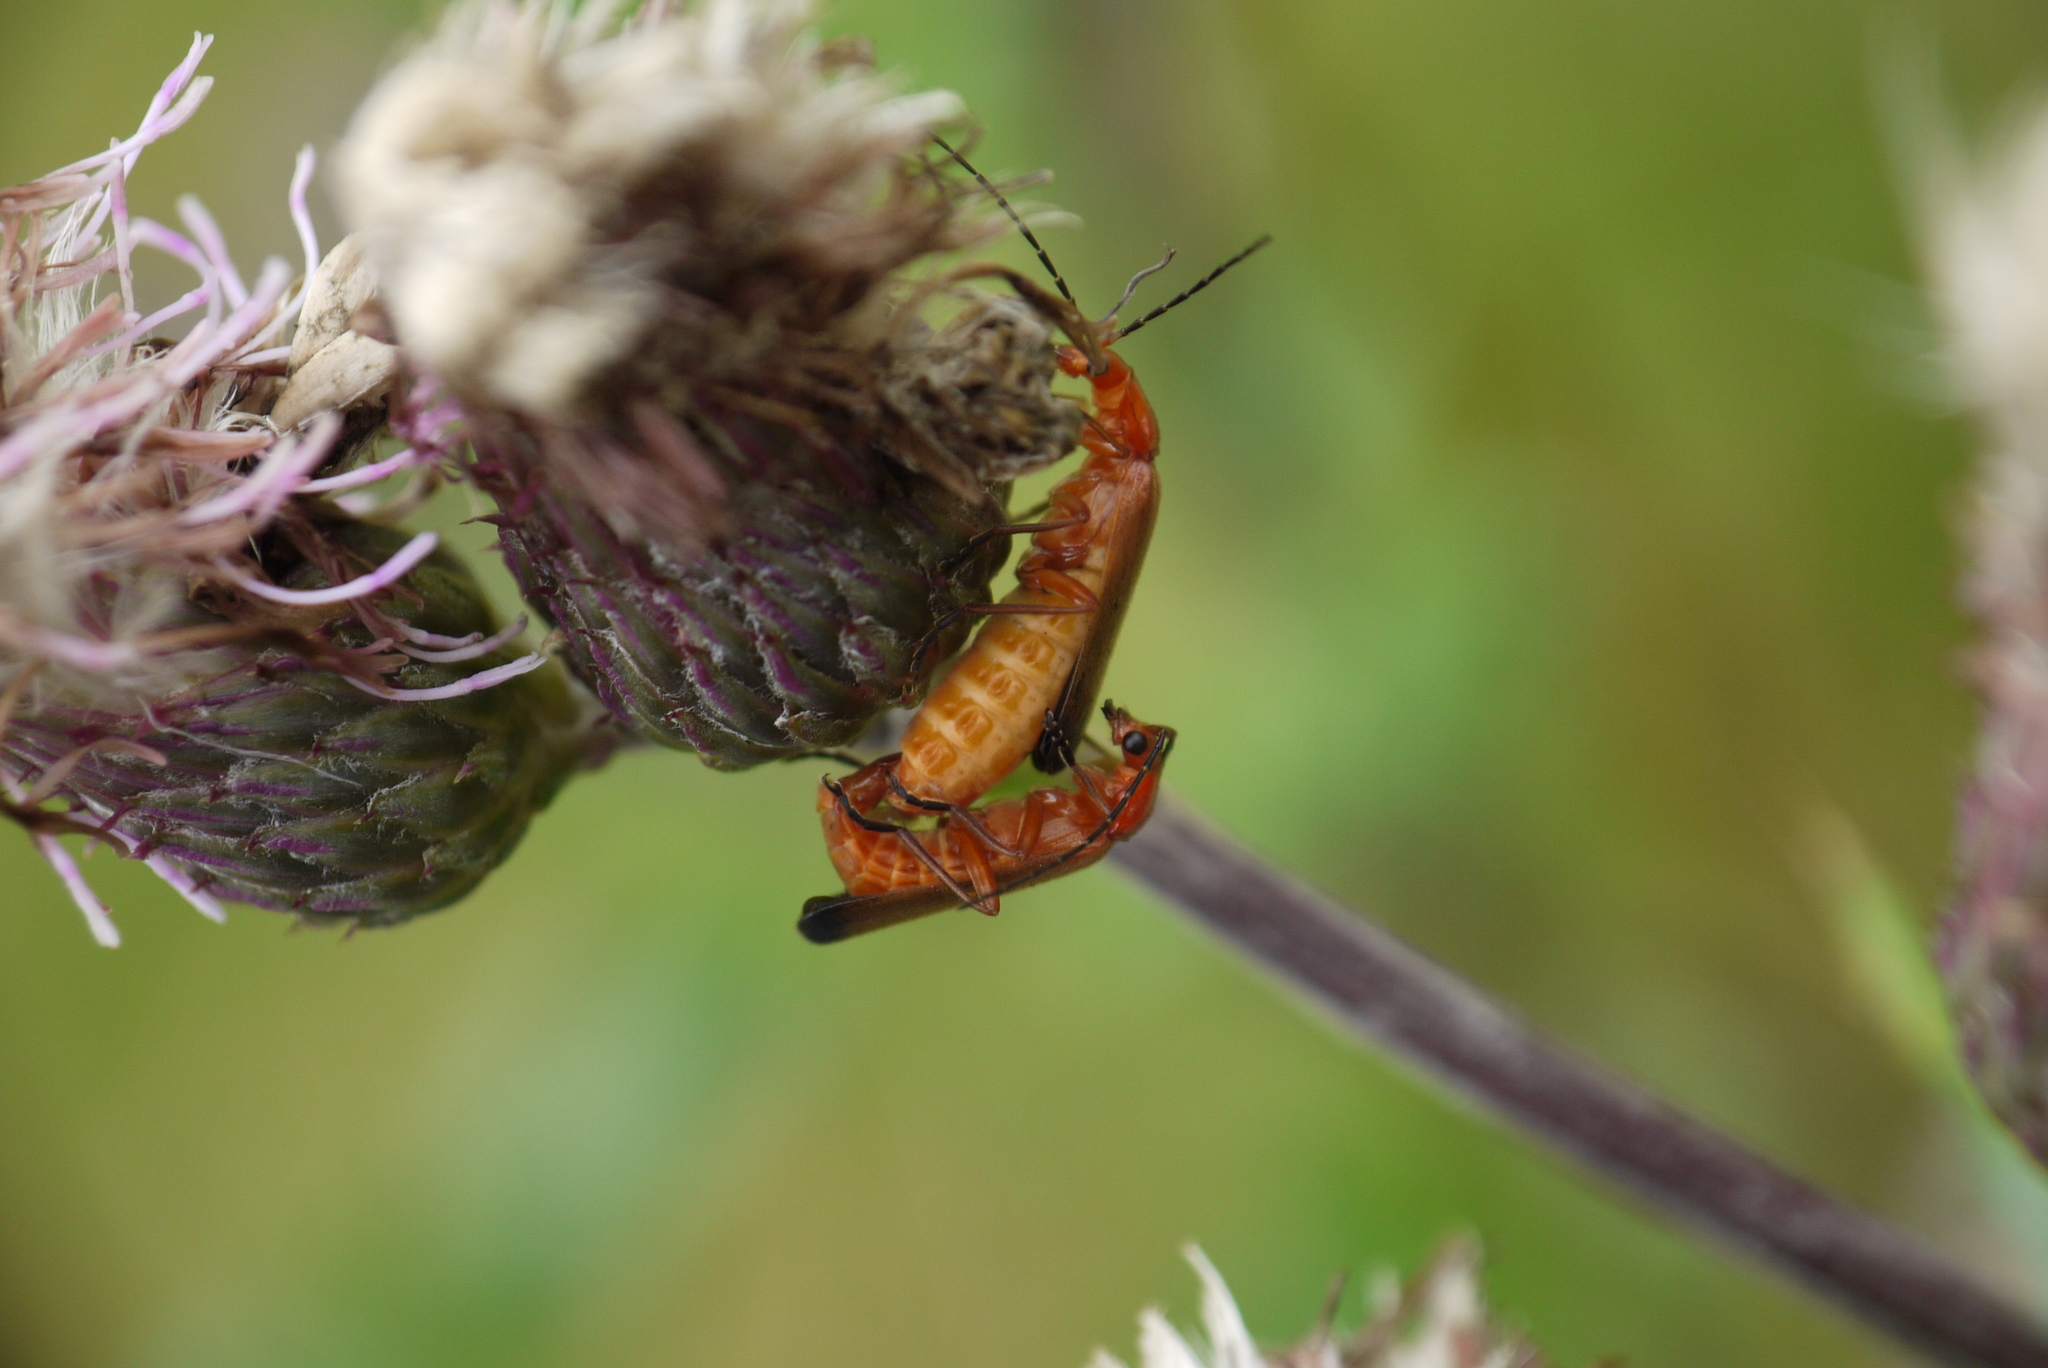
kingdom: Animalia
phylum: Arthropoda
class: Insecta
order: Coleoptera
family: Cantharidae
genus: Rhagonycha
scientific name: Rhagonycha fulva
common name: Common red soldier beetle
